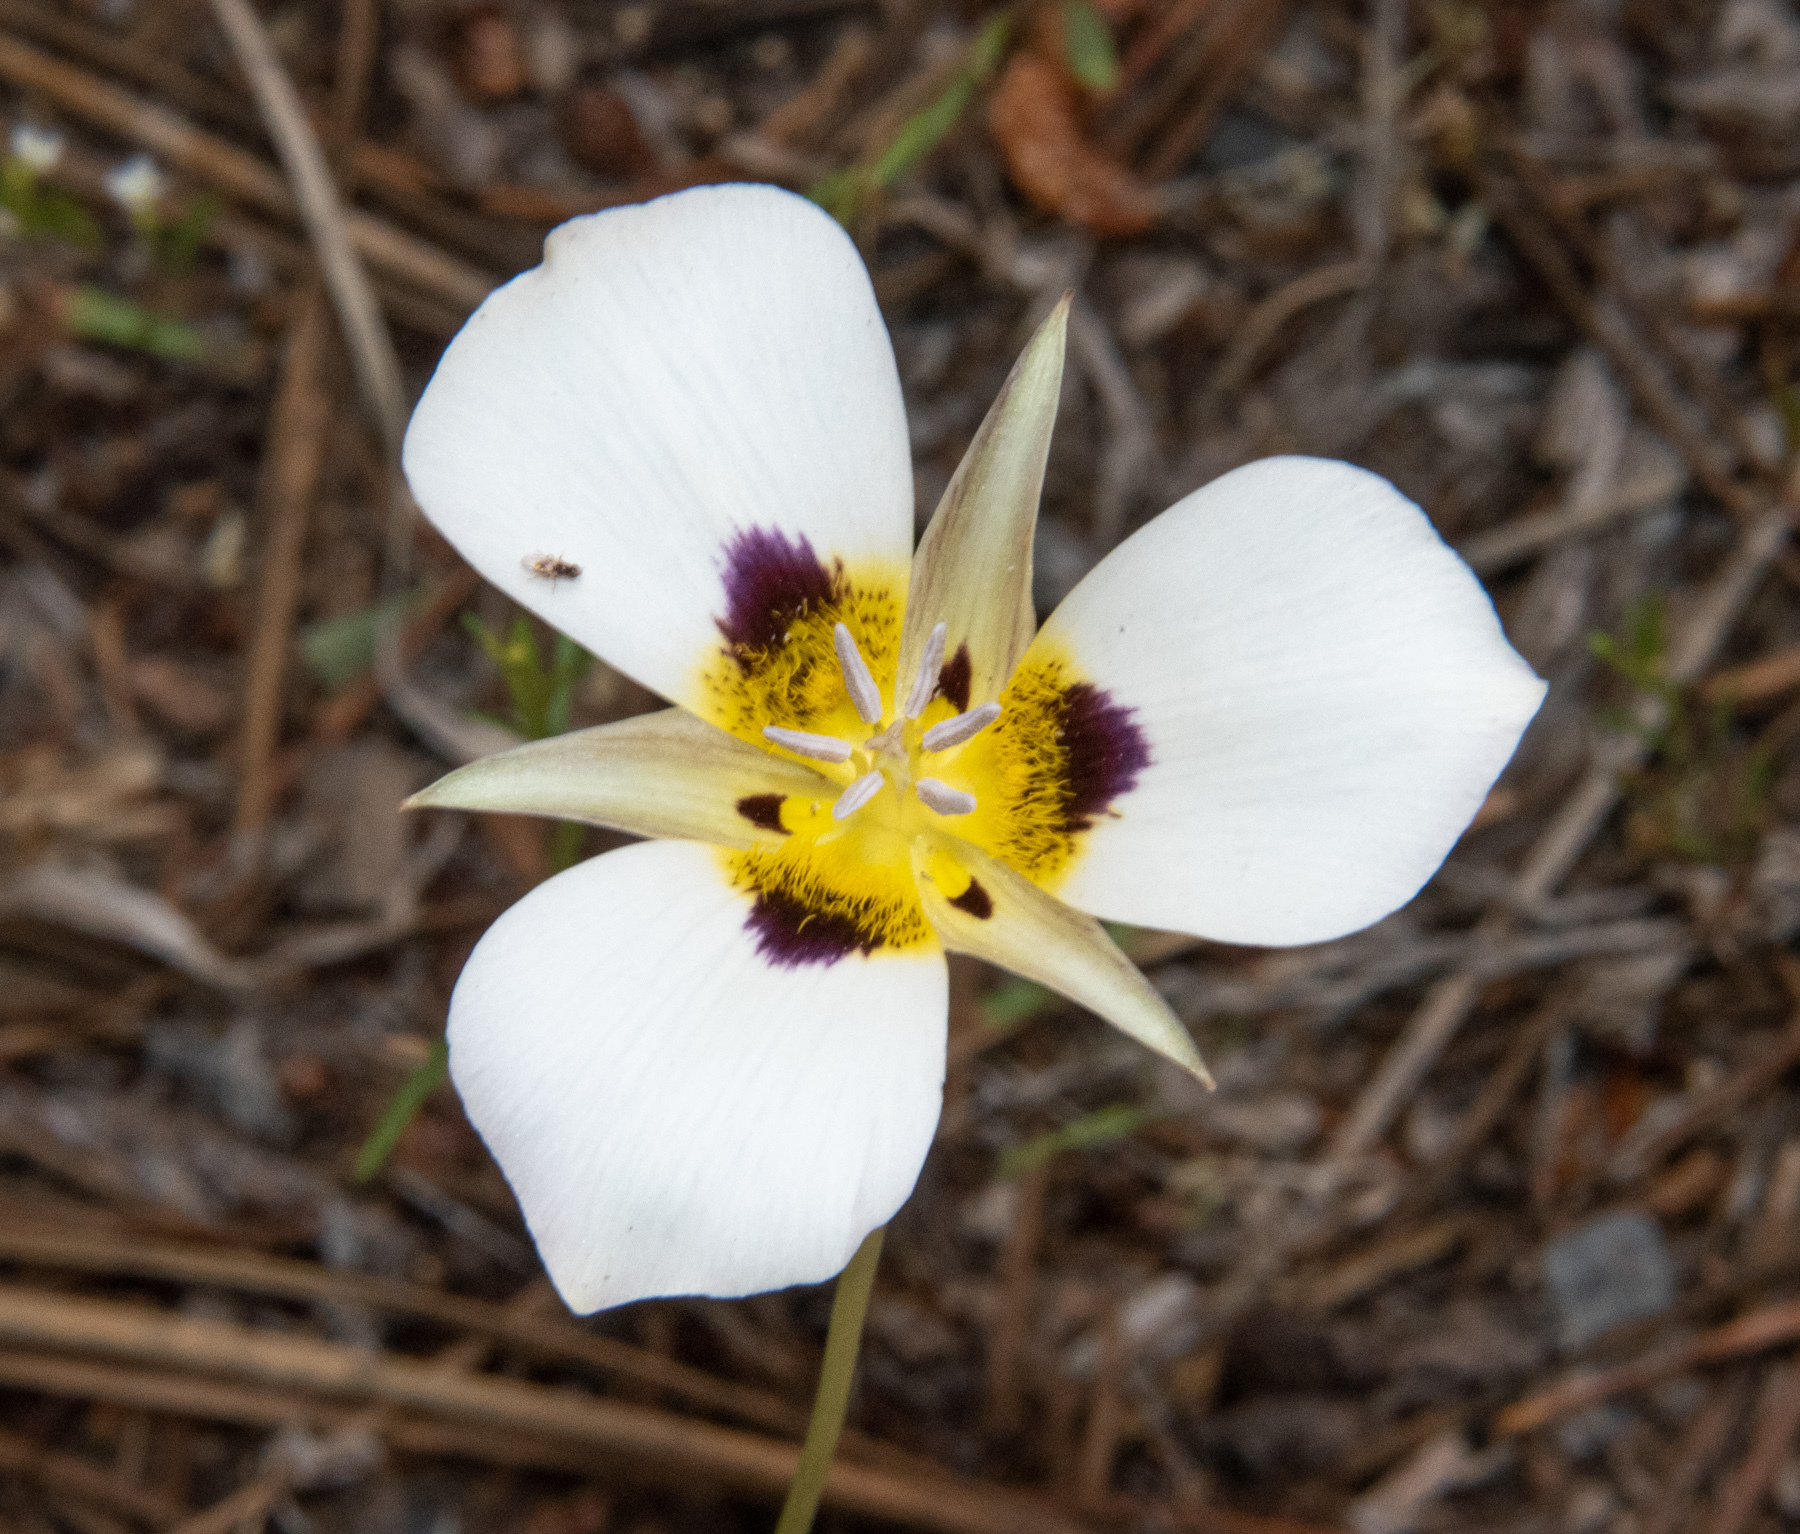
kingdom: Plantae
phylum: Tracheophyta
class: Liliopsida
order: Liliales
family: Liliaceae
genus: Calochortus
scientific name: Calochortus leichtlinii
